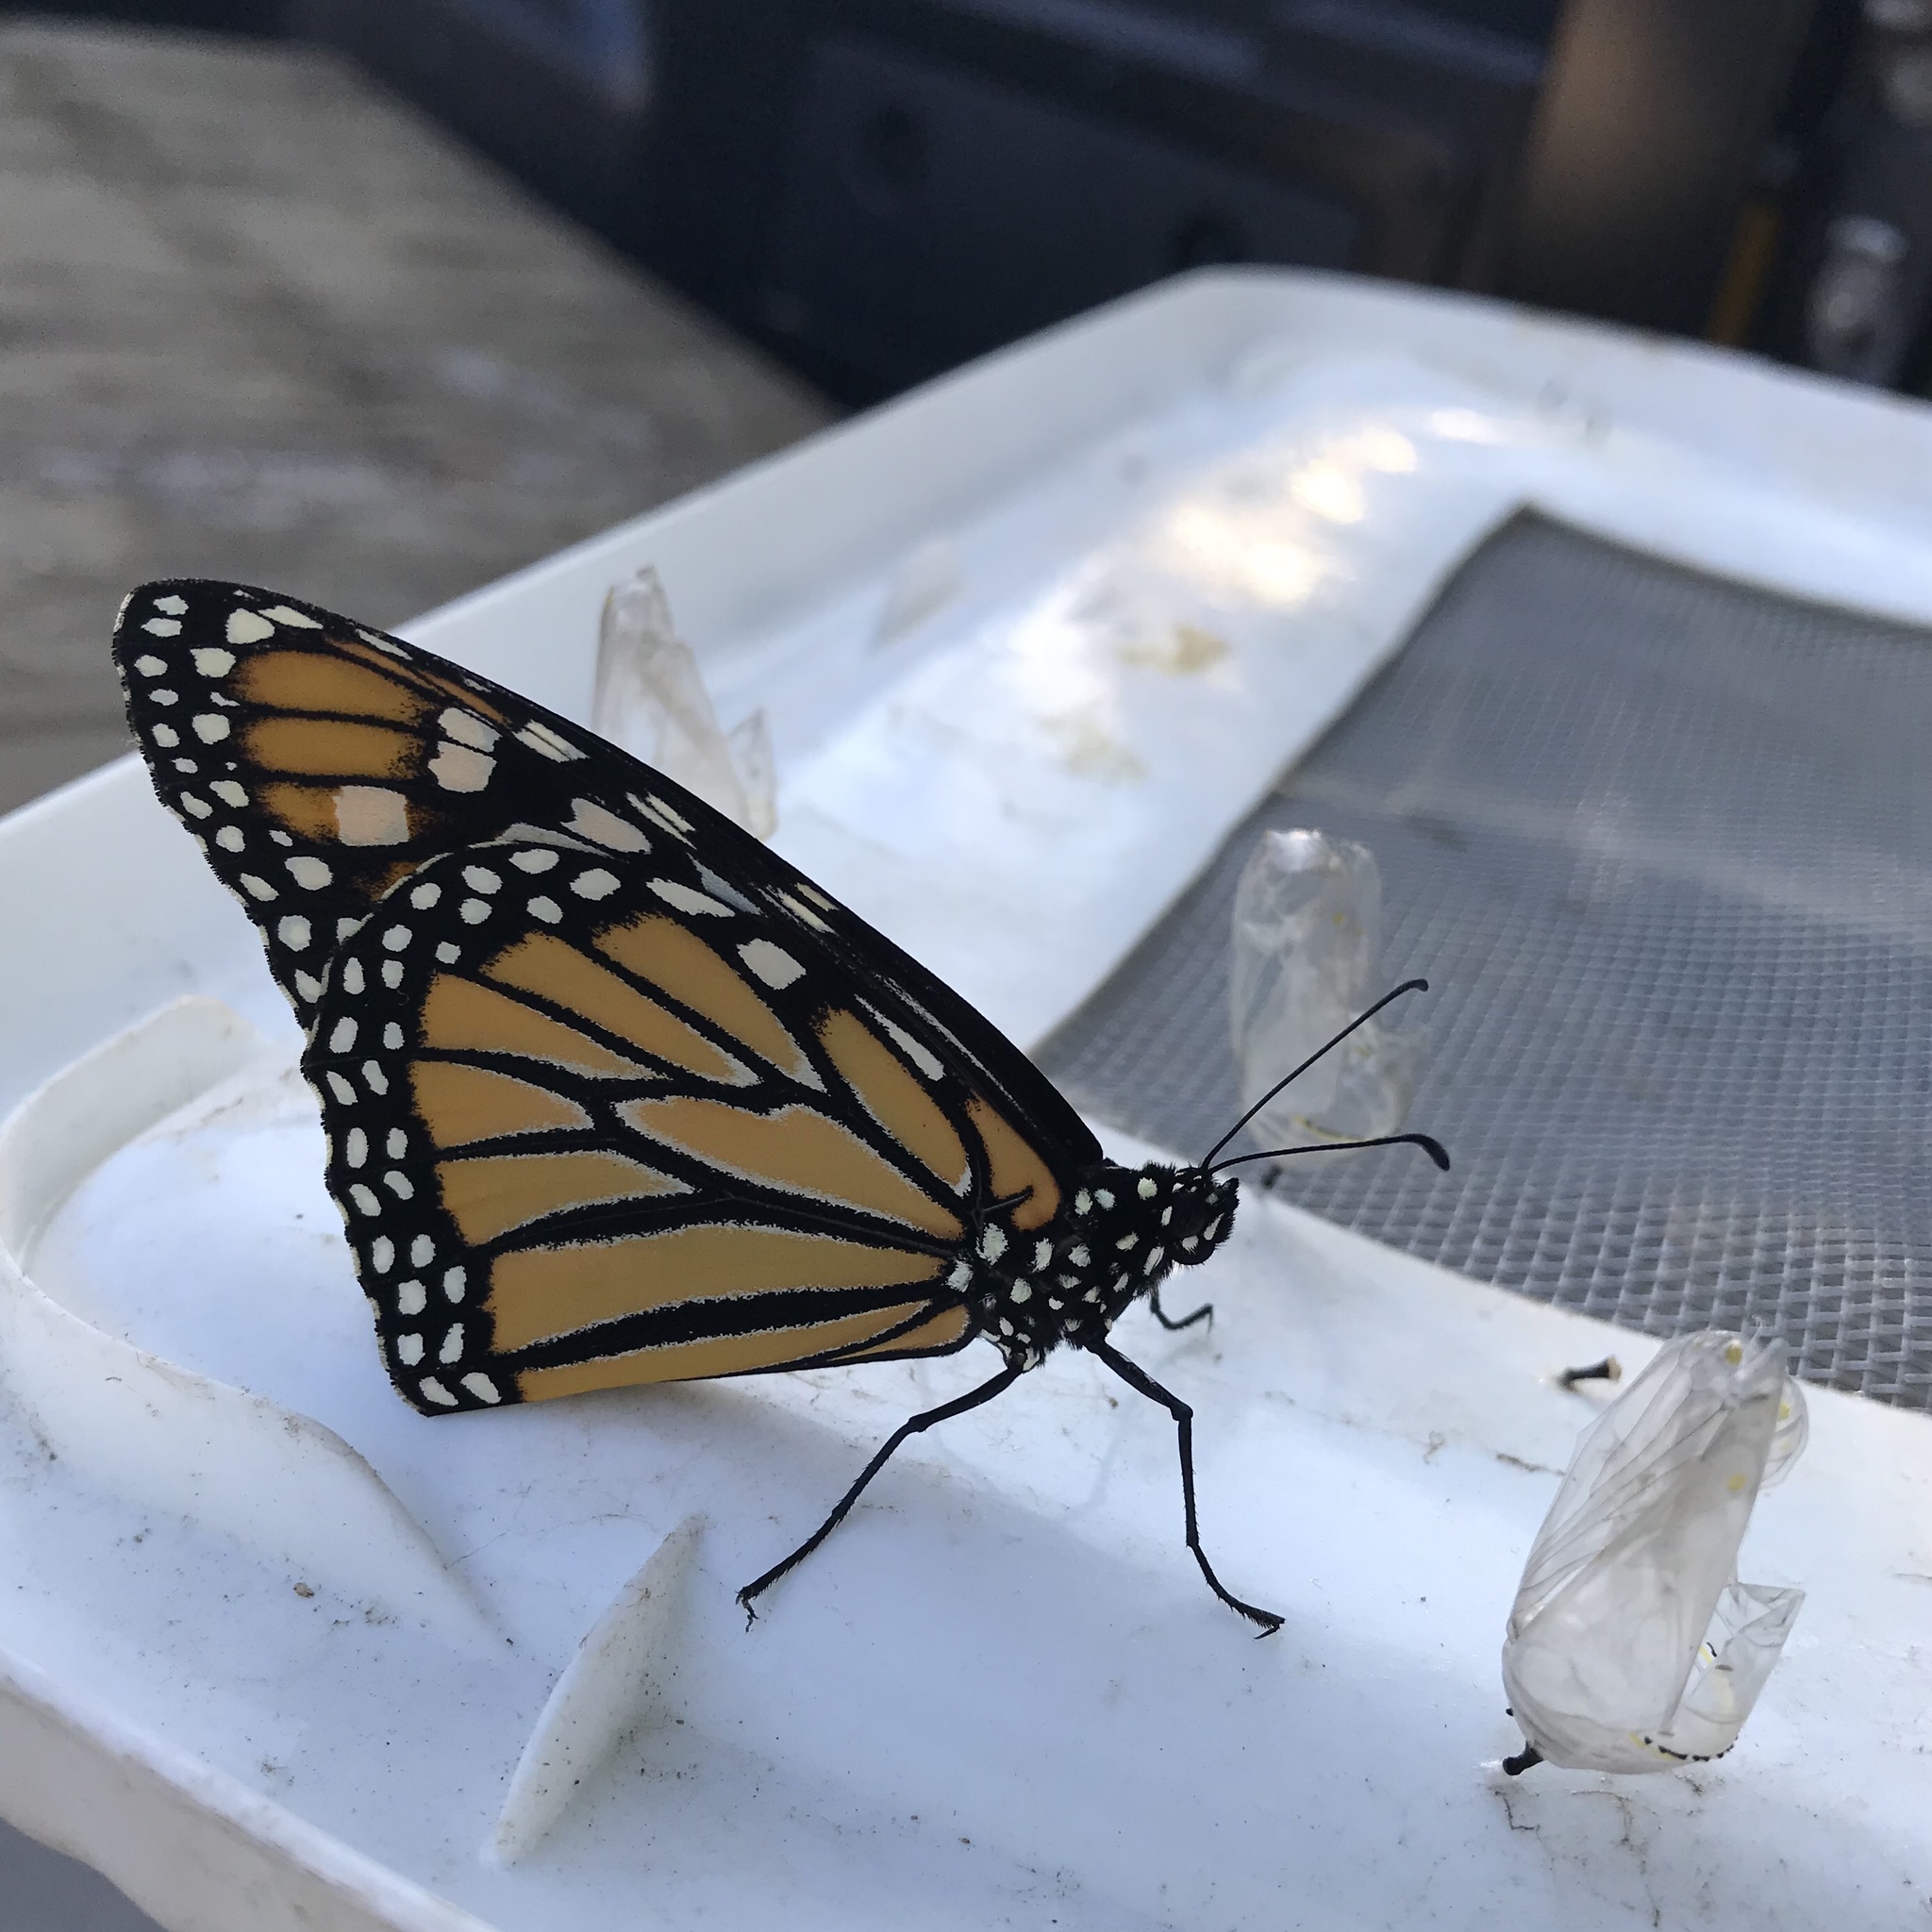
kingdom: Animalia
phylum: Arthropoda
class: Insecta
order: Lepidoptera
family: Nymphalidae
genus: Danaus
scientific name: Danaus plexippus
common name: Monarch
